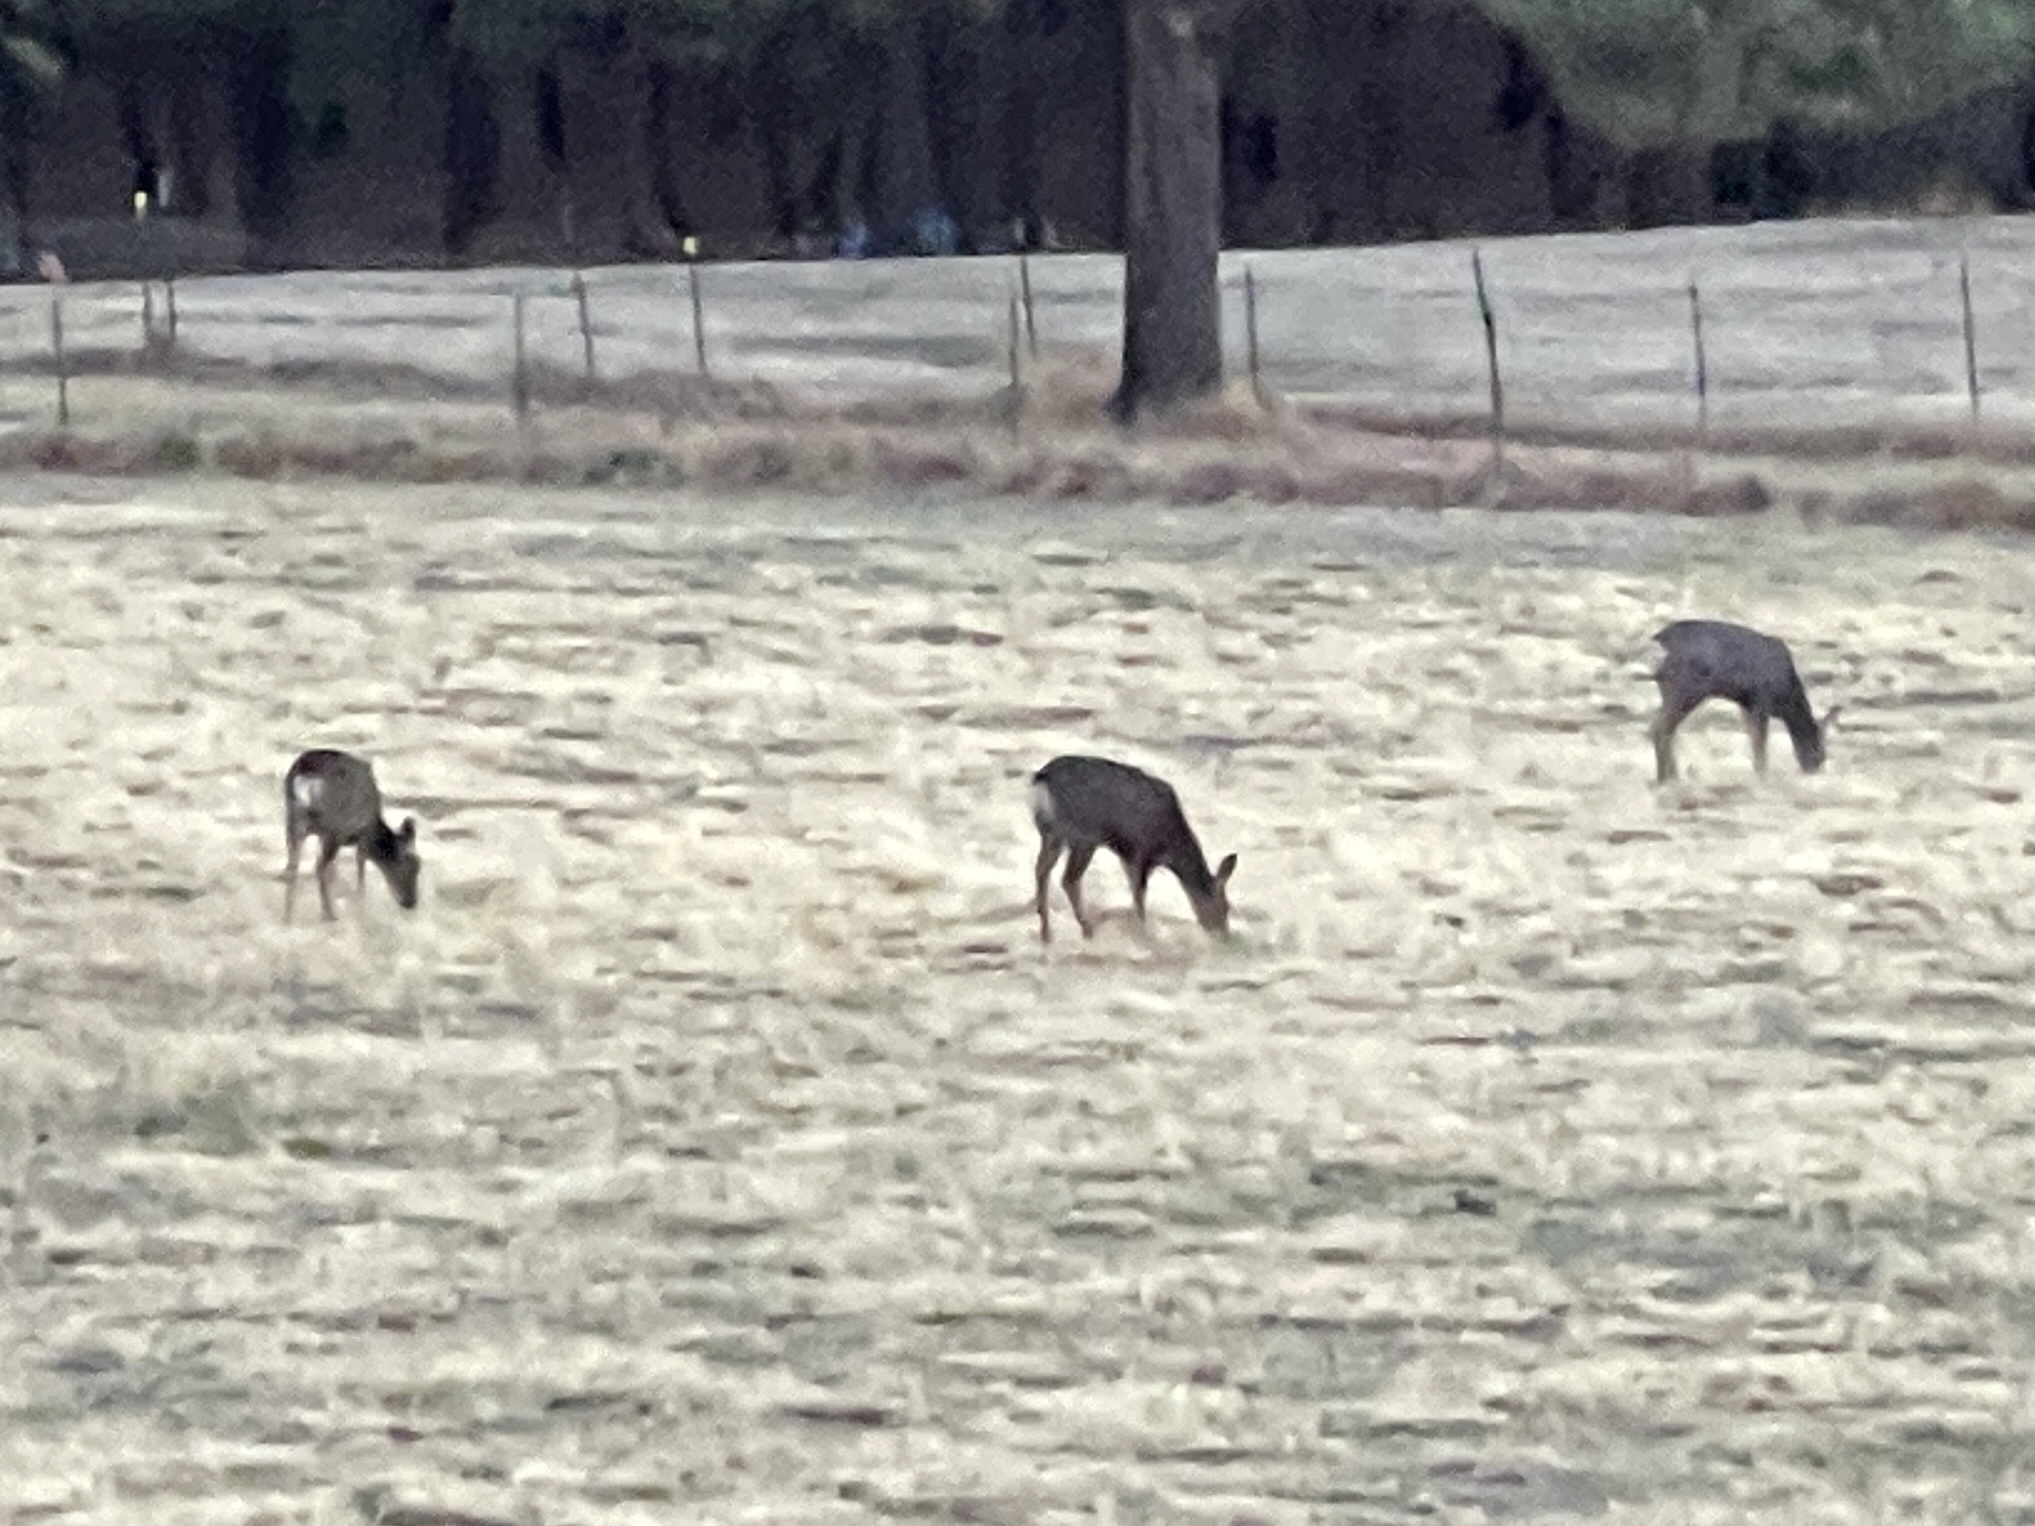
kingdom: Animalia
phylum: Chordata
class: Mammalia
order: Artiodactyla
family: Cervidae
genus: Odocoileus
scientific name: Odocoileus hemionus
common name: Mule deer
